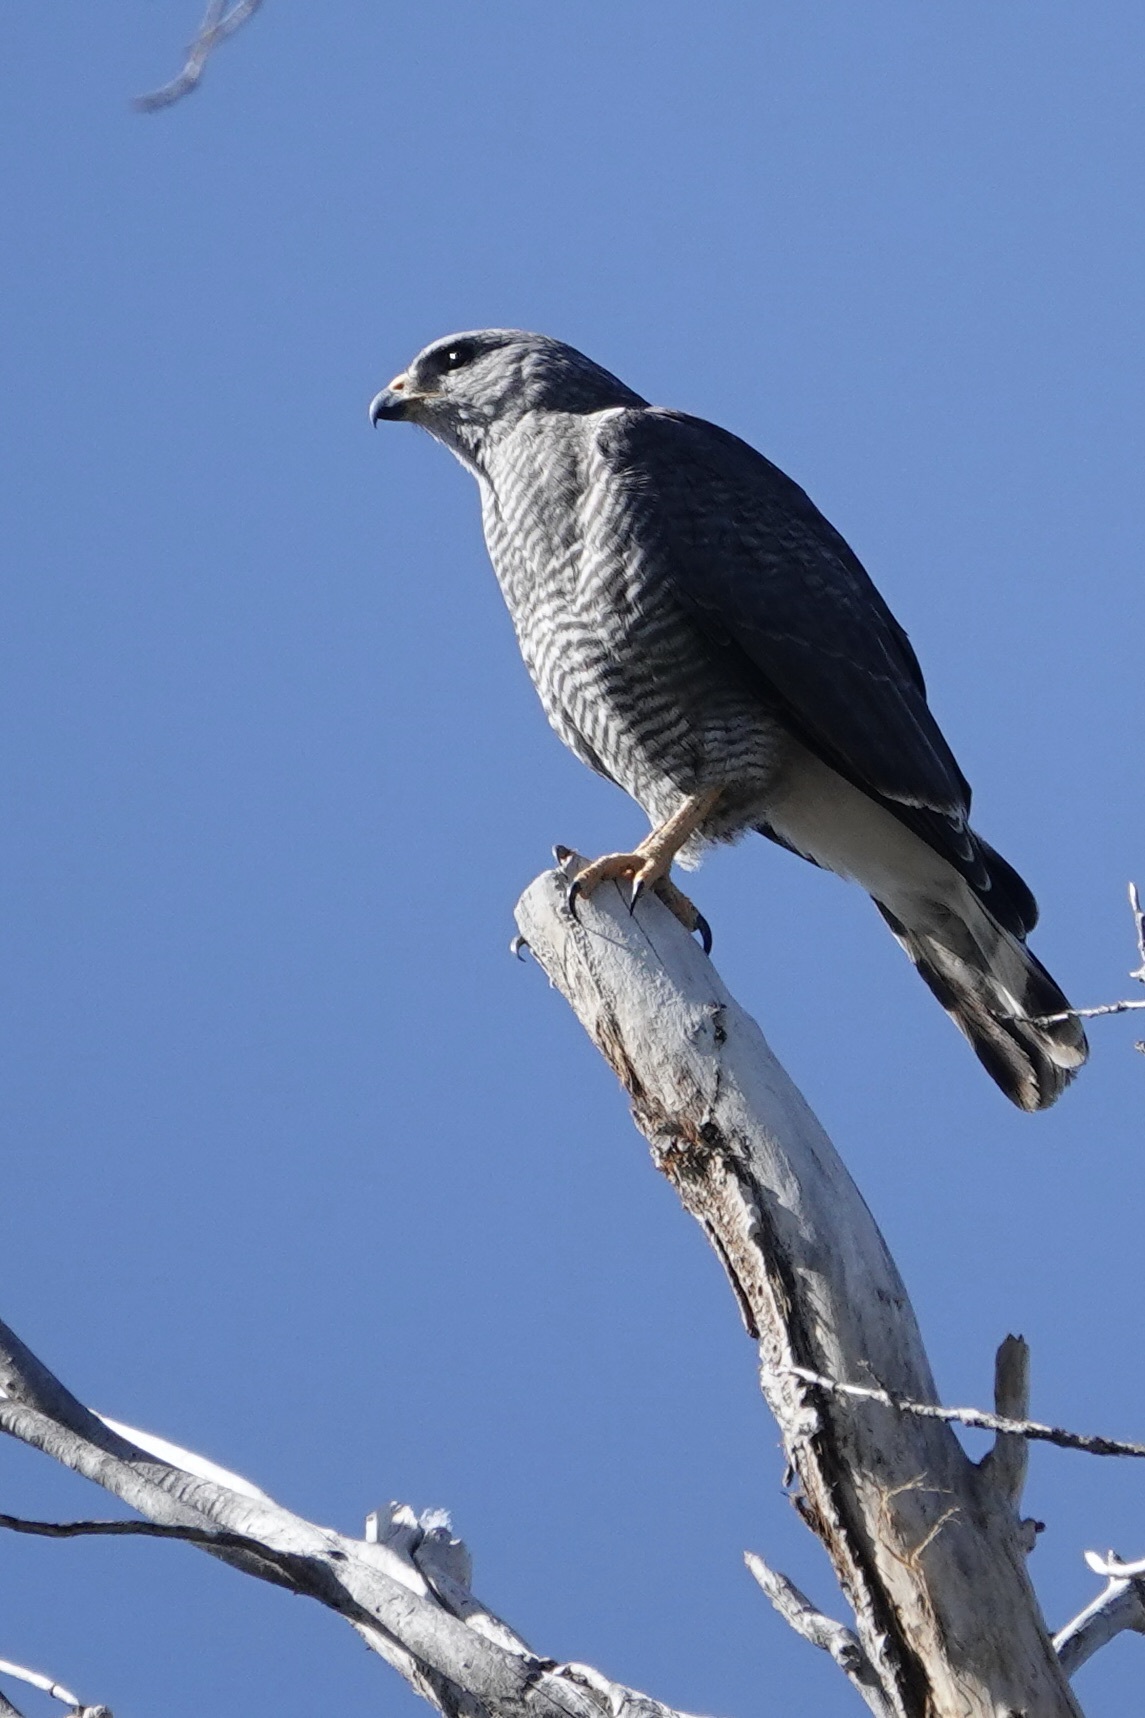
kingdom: Animalia
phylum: Chordata
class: Aves
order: Accipitriformes
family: Accipitridae
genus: Buteo
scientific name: Buteo nitidus
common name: Grey-lined hawk
